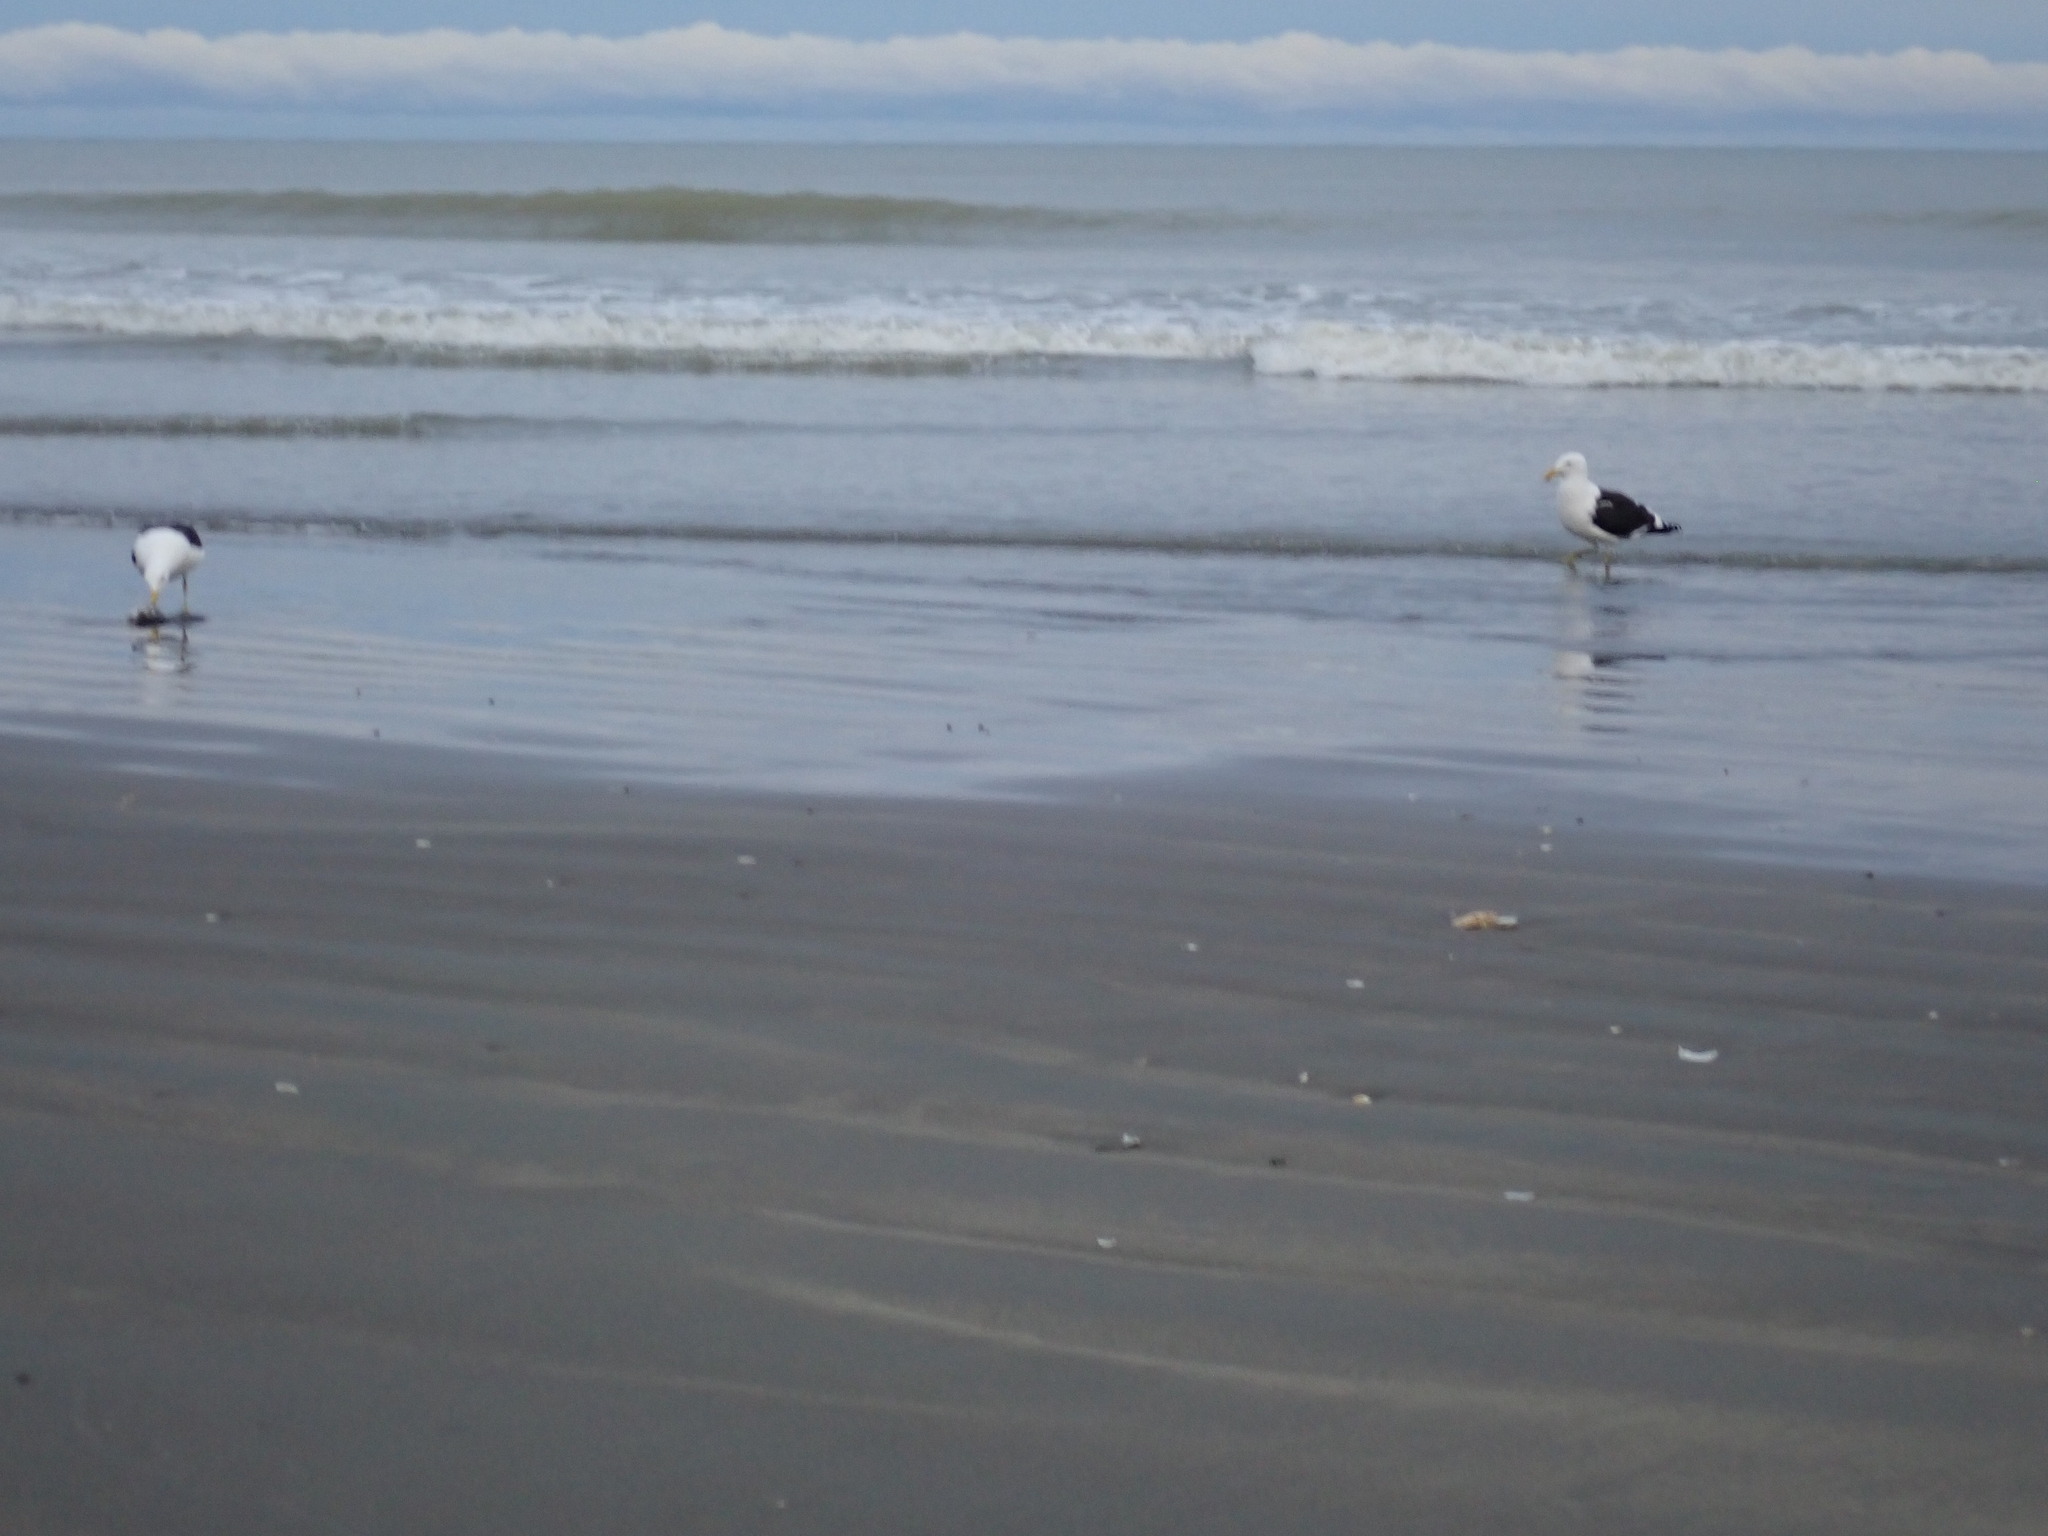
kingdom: Animalia
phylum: Chordata
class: Aves
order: Charadriiformes
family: Laridae
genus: Larus
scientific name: Larus dominicanus
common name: Kelp gull
